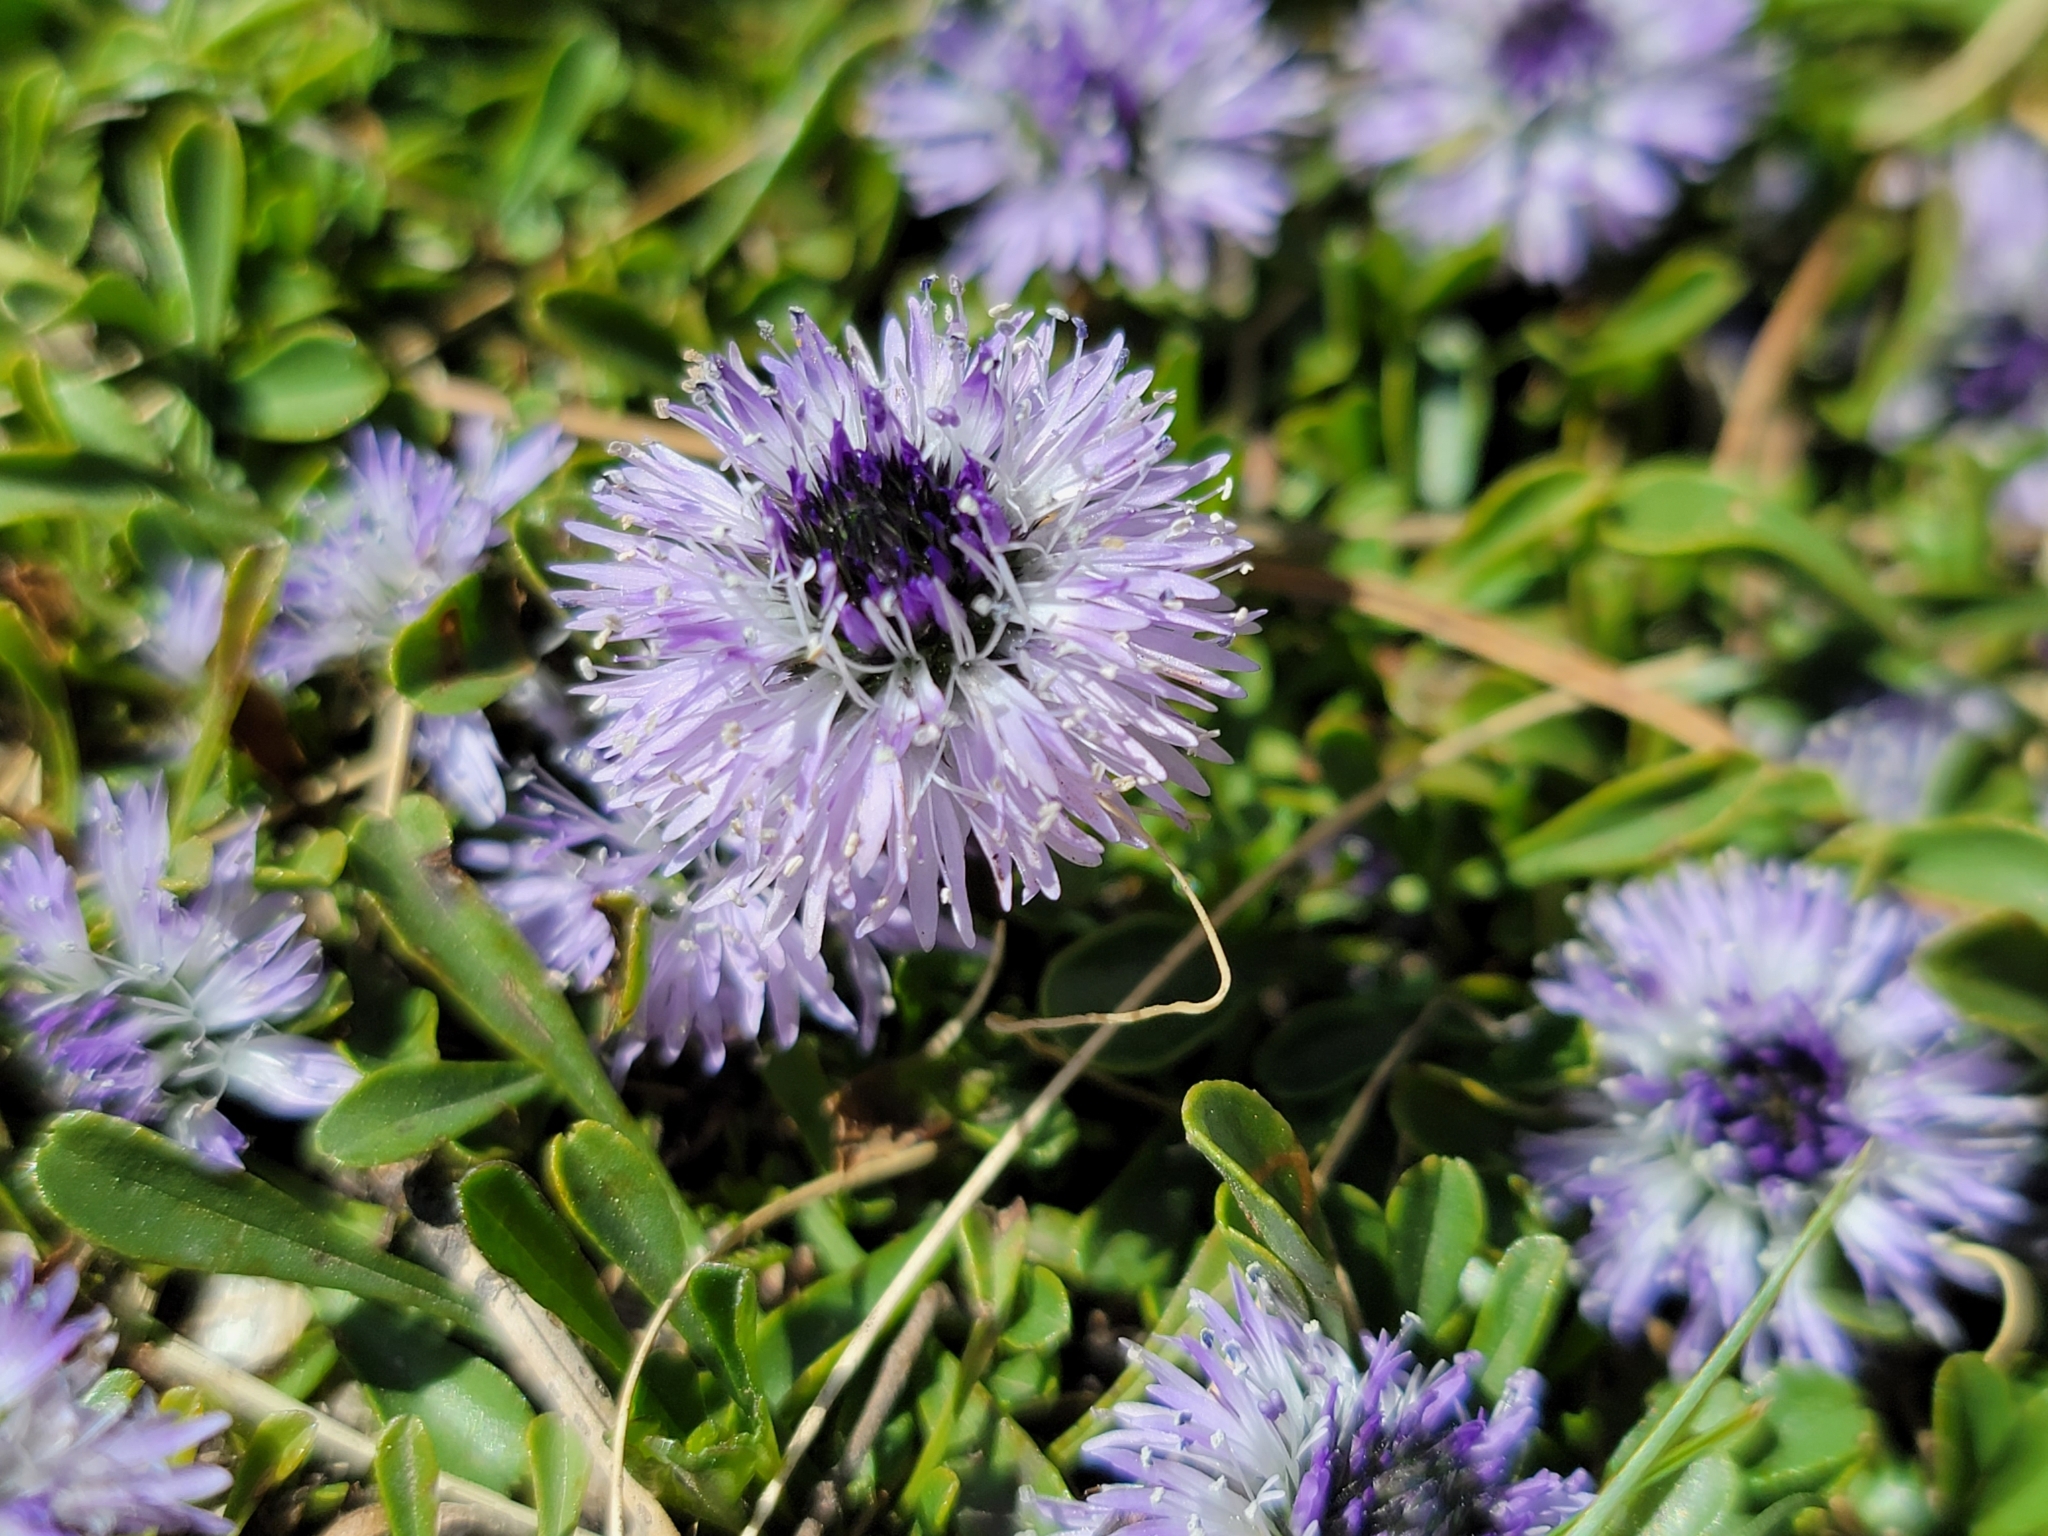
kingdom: Plantae
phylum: Tracheophyta
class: Magnoliopsida
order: Lamiales
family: Plantaginaceae
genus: Globularia
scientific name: Globularia cordifolia
